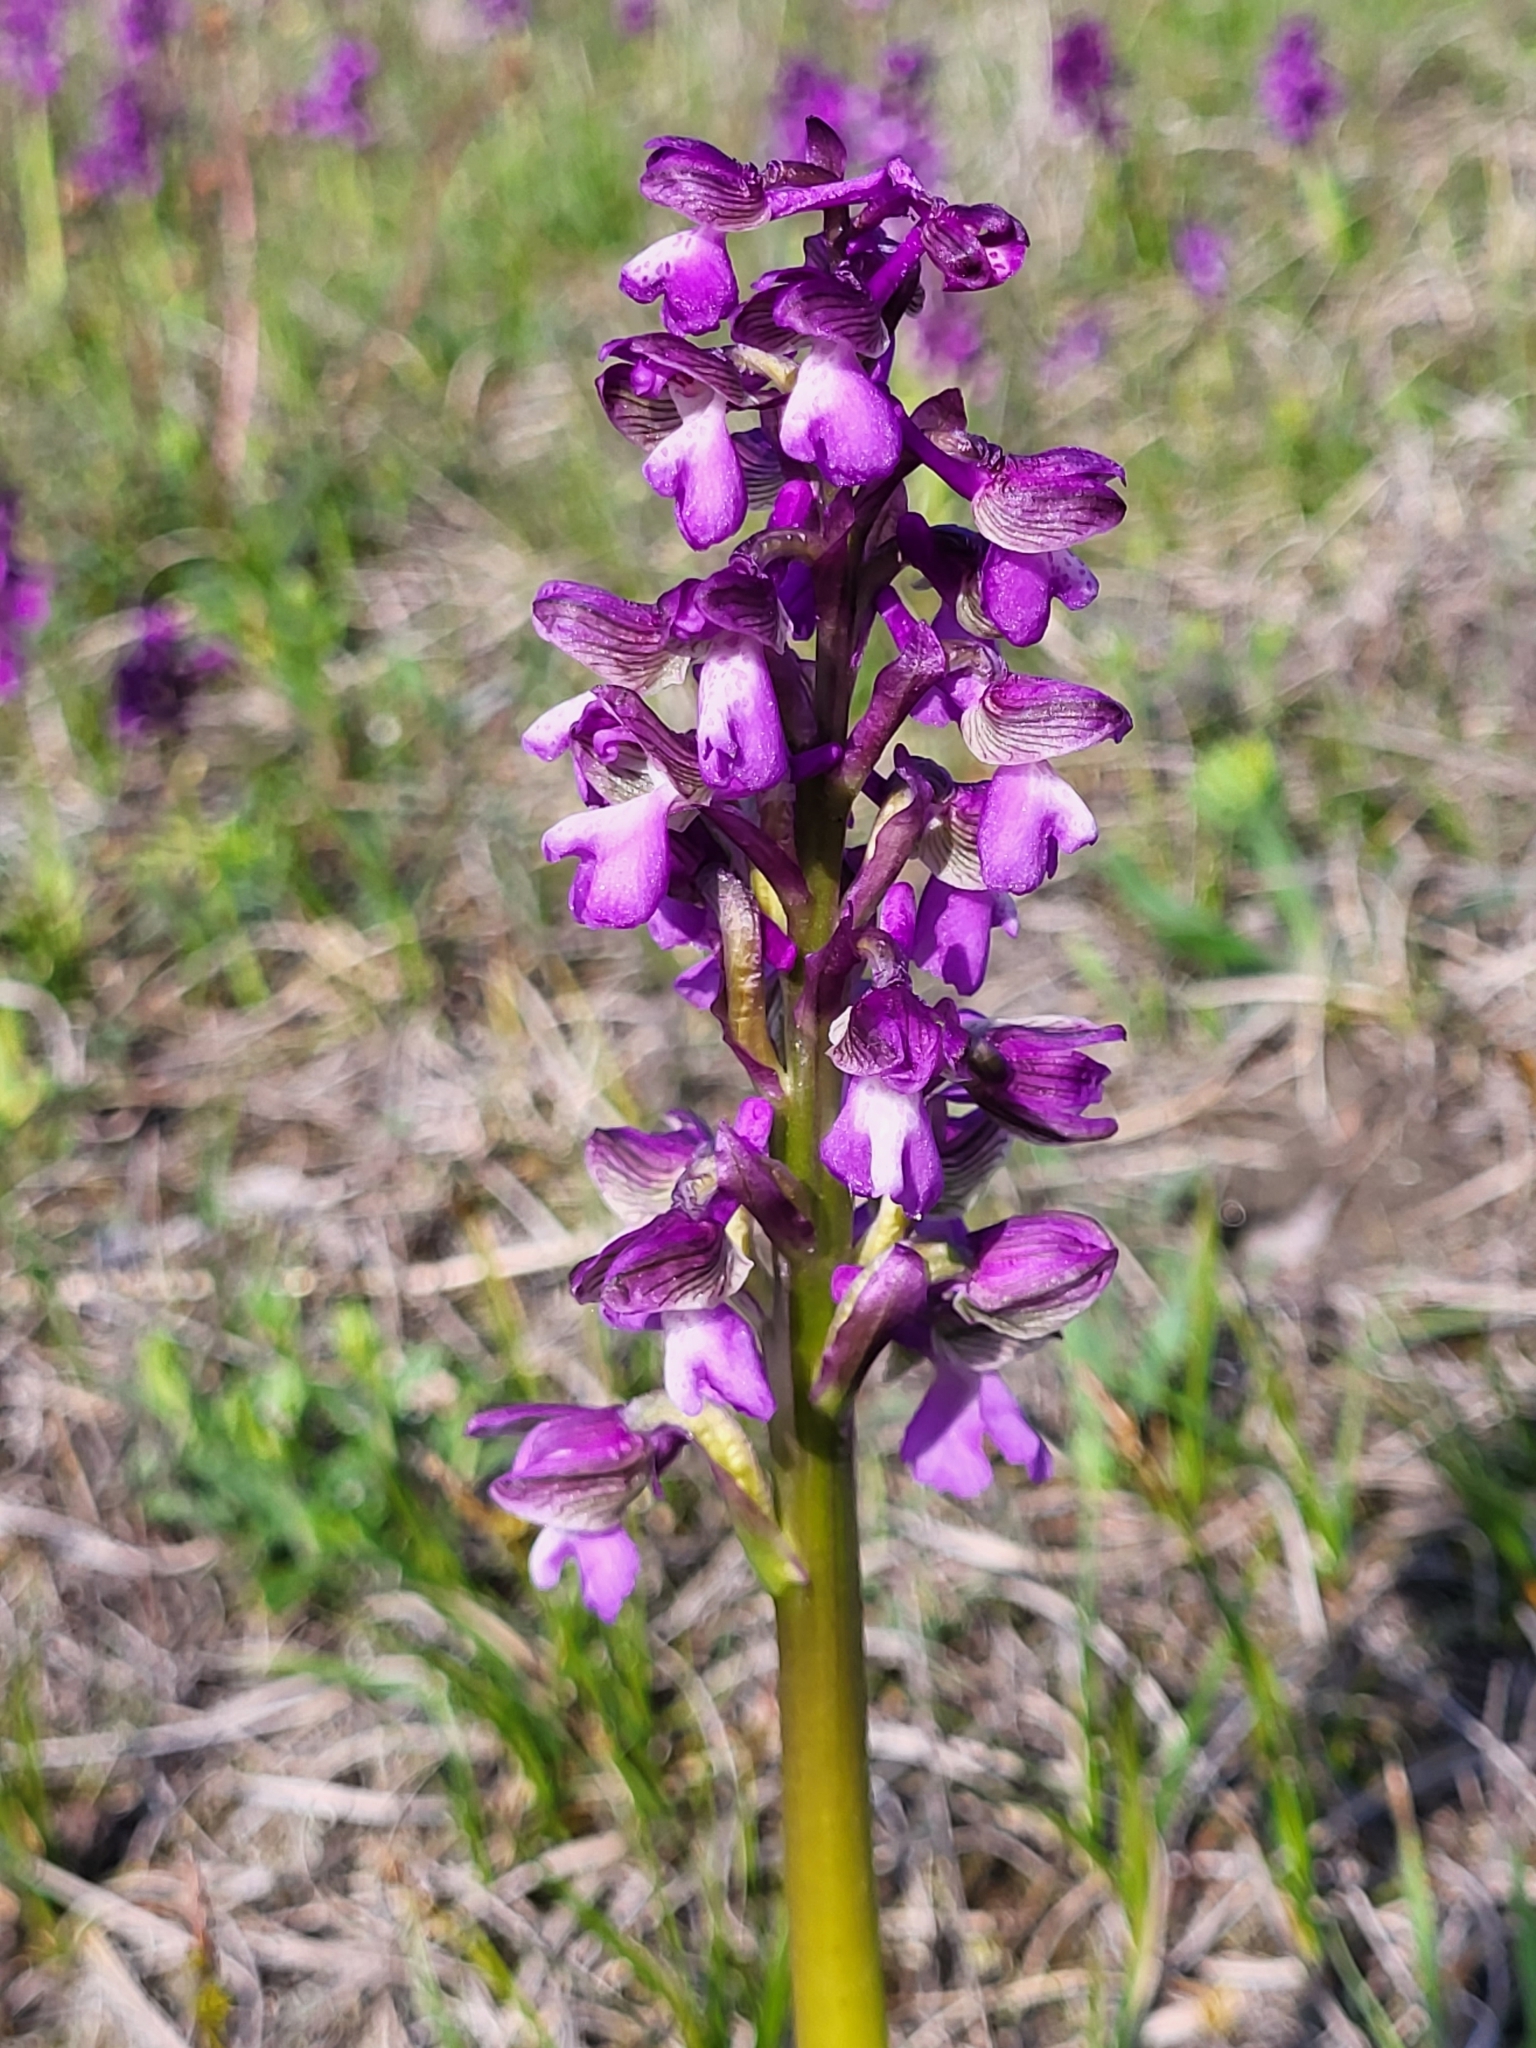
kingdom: Plantae
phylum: Tracheophyta
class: Liliopsida
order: Asparagales
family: Orchidaceae
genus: Anacamptis
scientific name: Anacamptis morio
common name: Green-winged orchid
